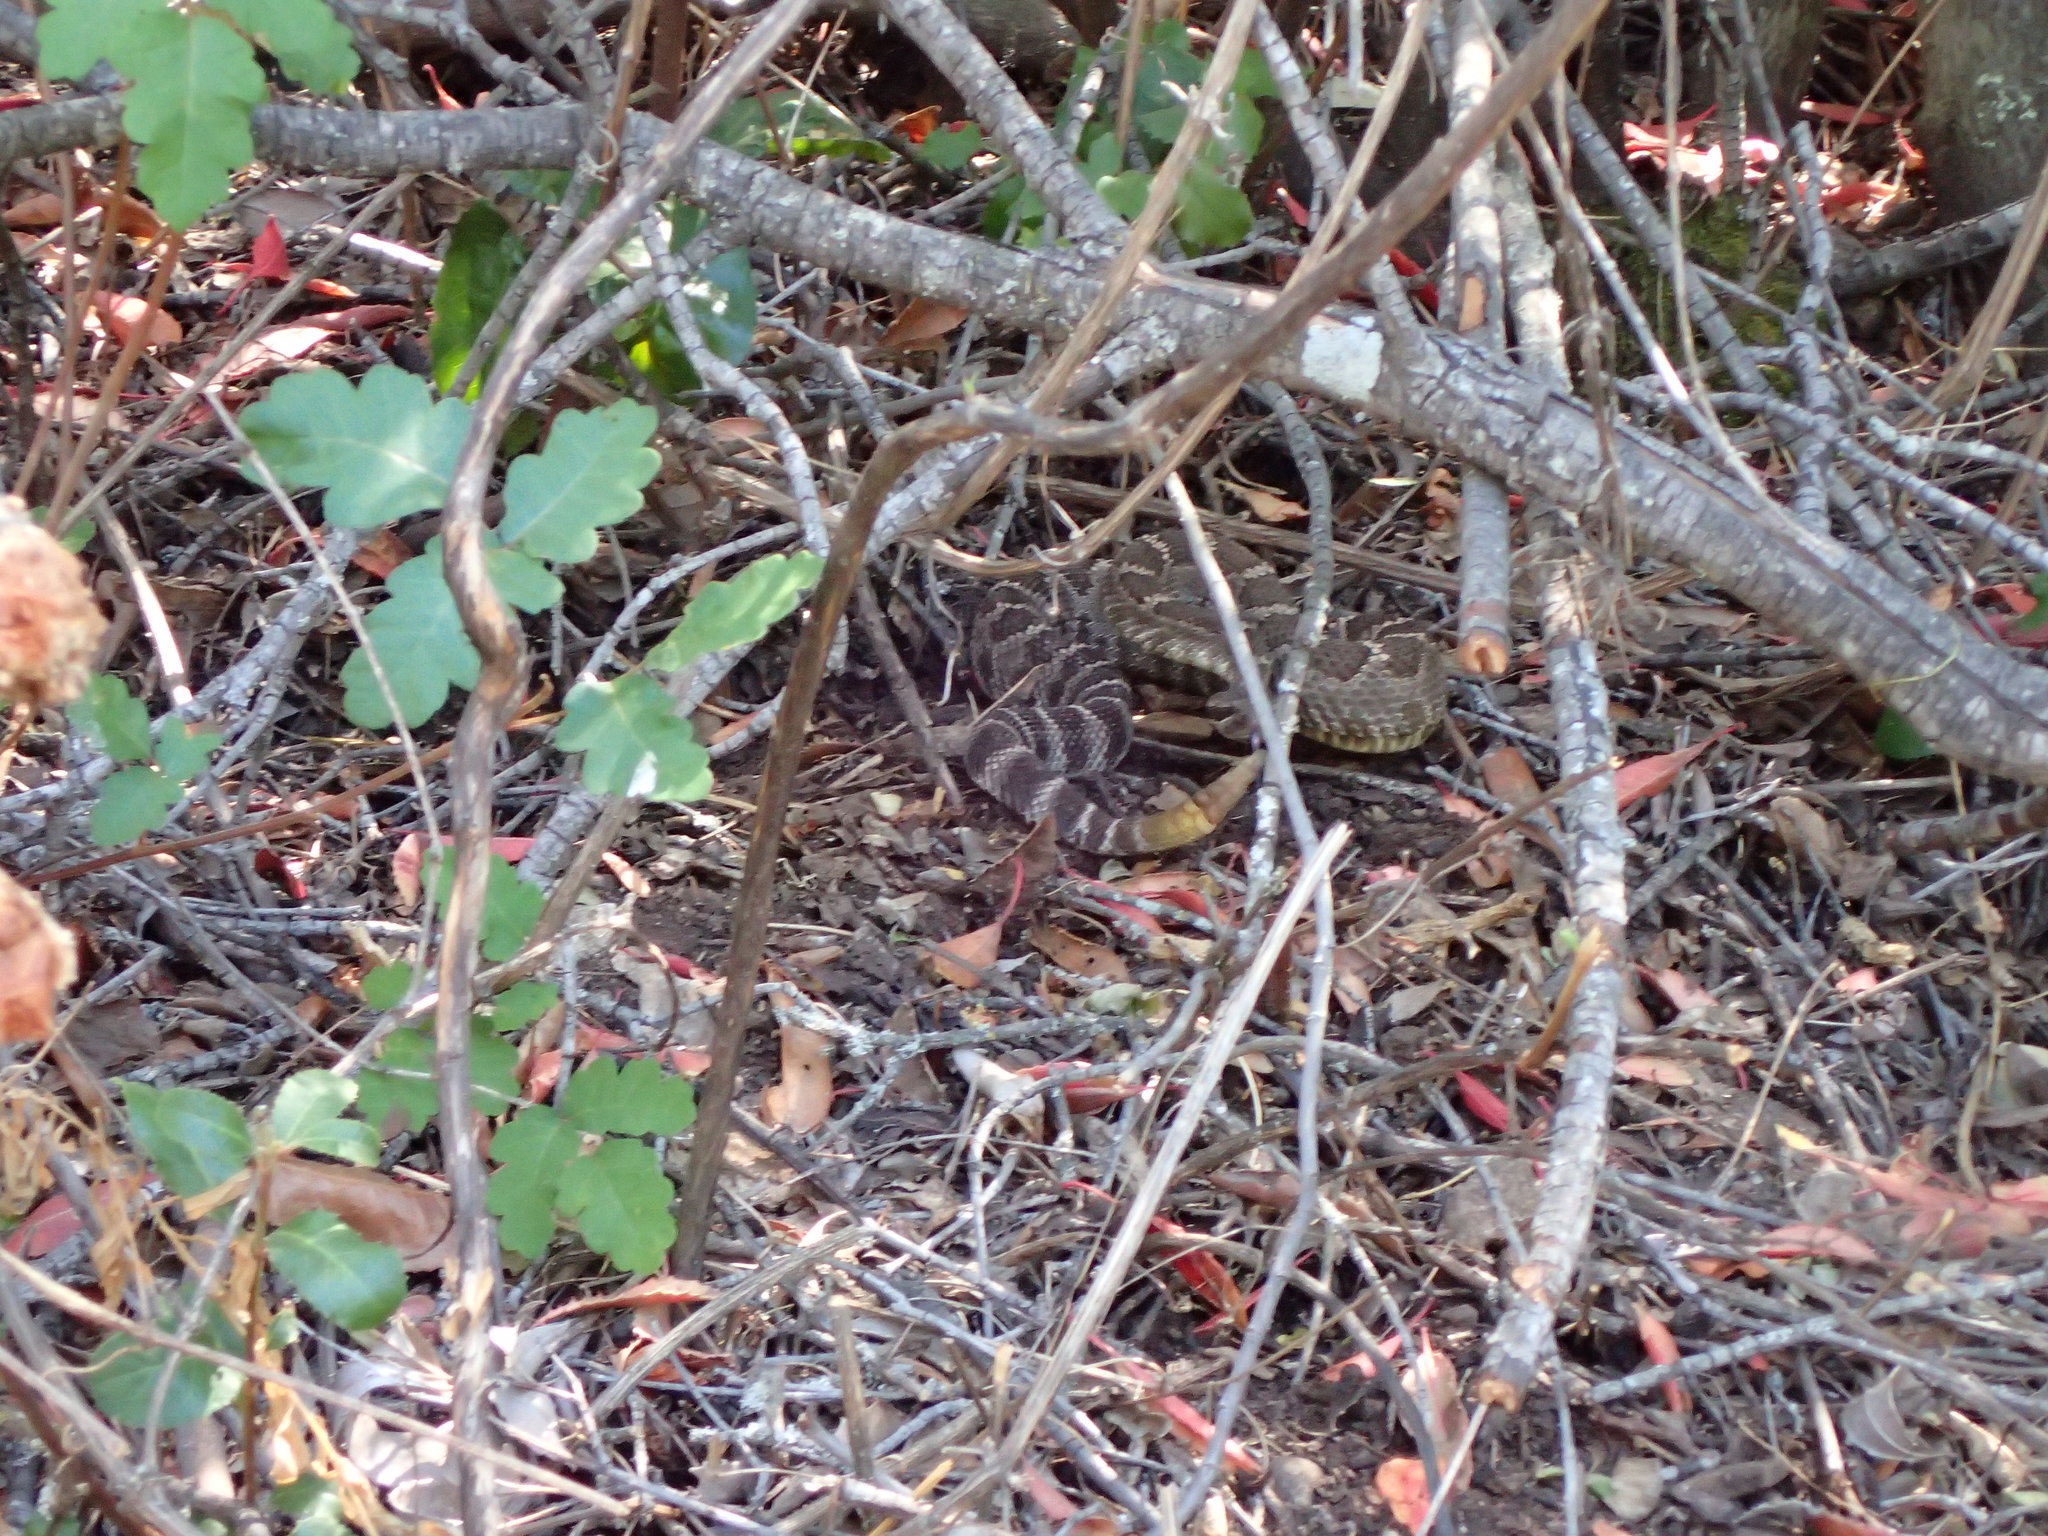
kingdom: Animalia
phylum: Chordata
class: Squamata
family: Viperidae
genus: Crotalus
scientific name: Crotalus oreganus
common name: Abyssus
